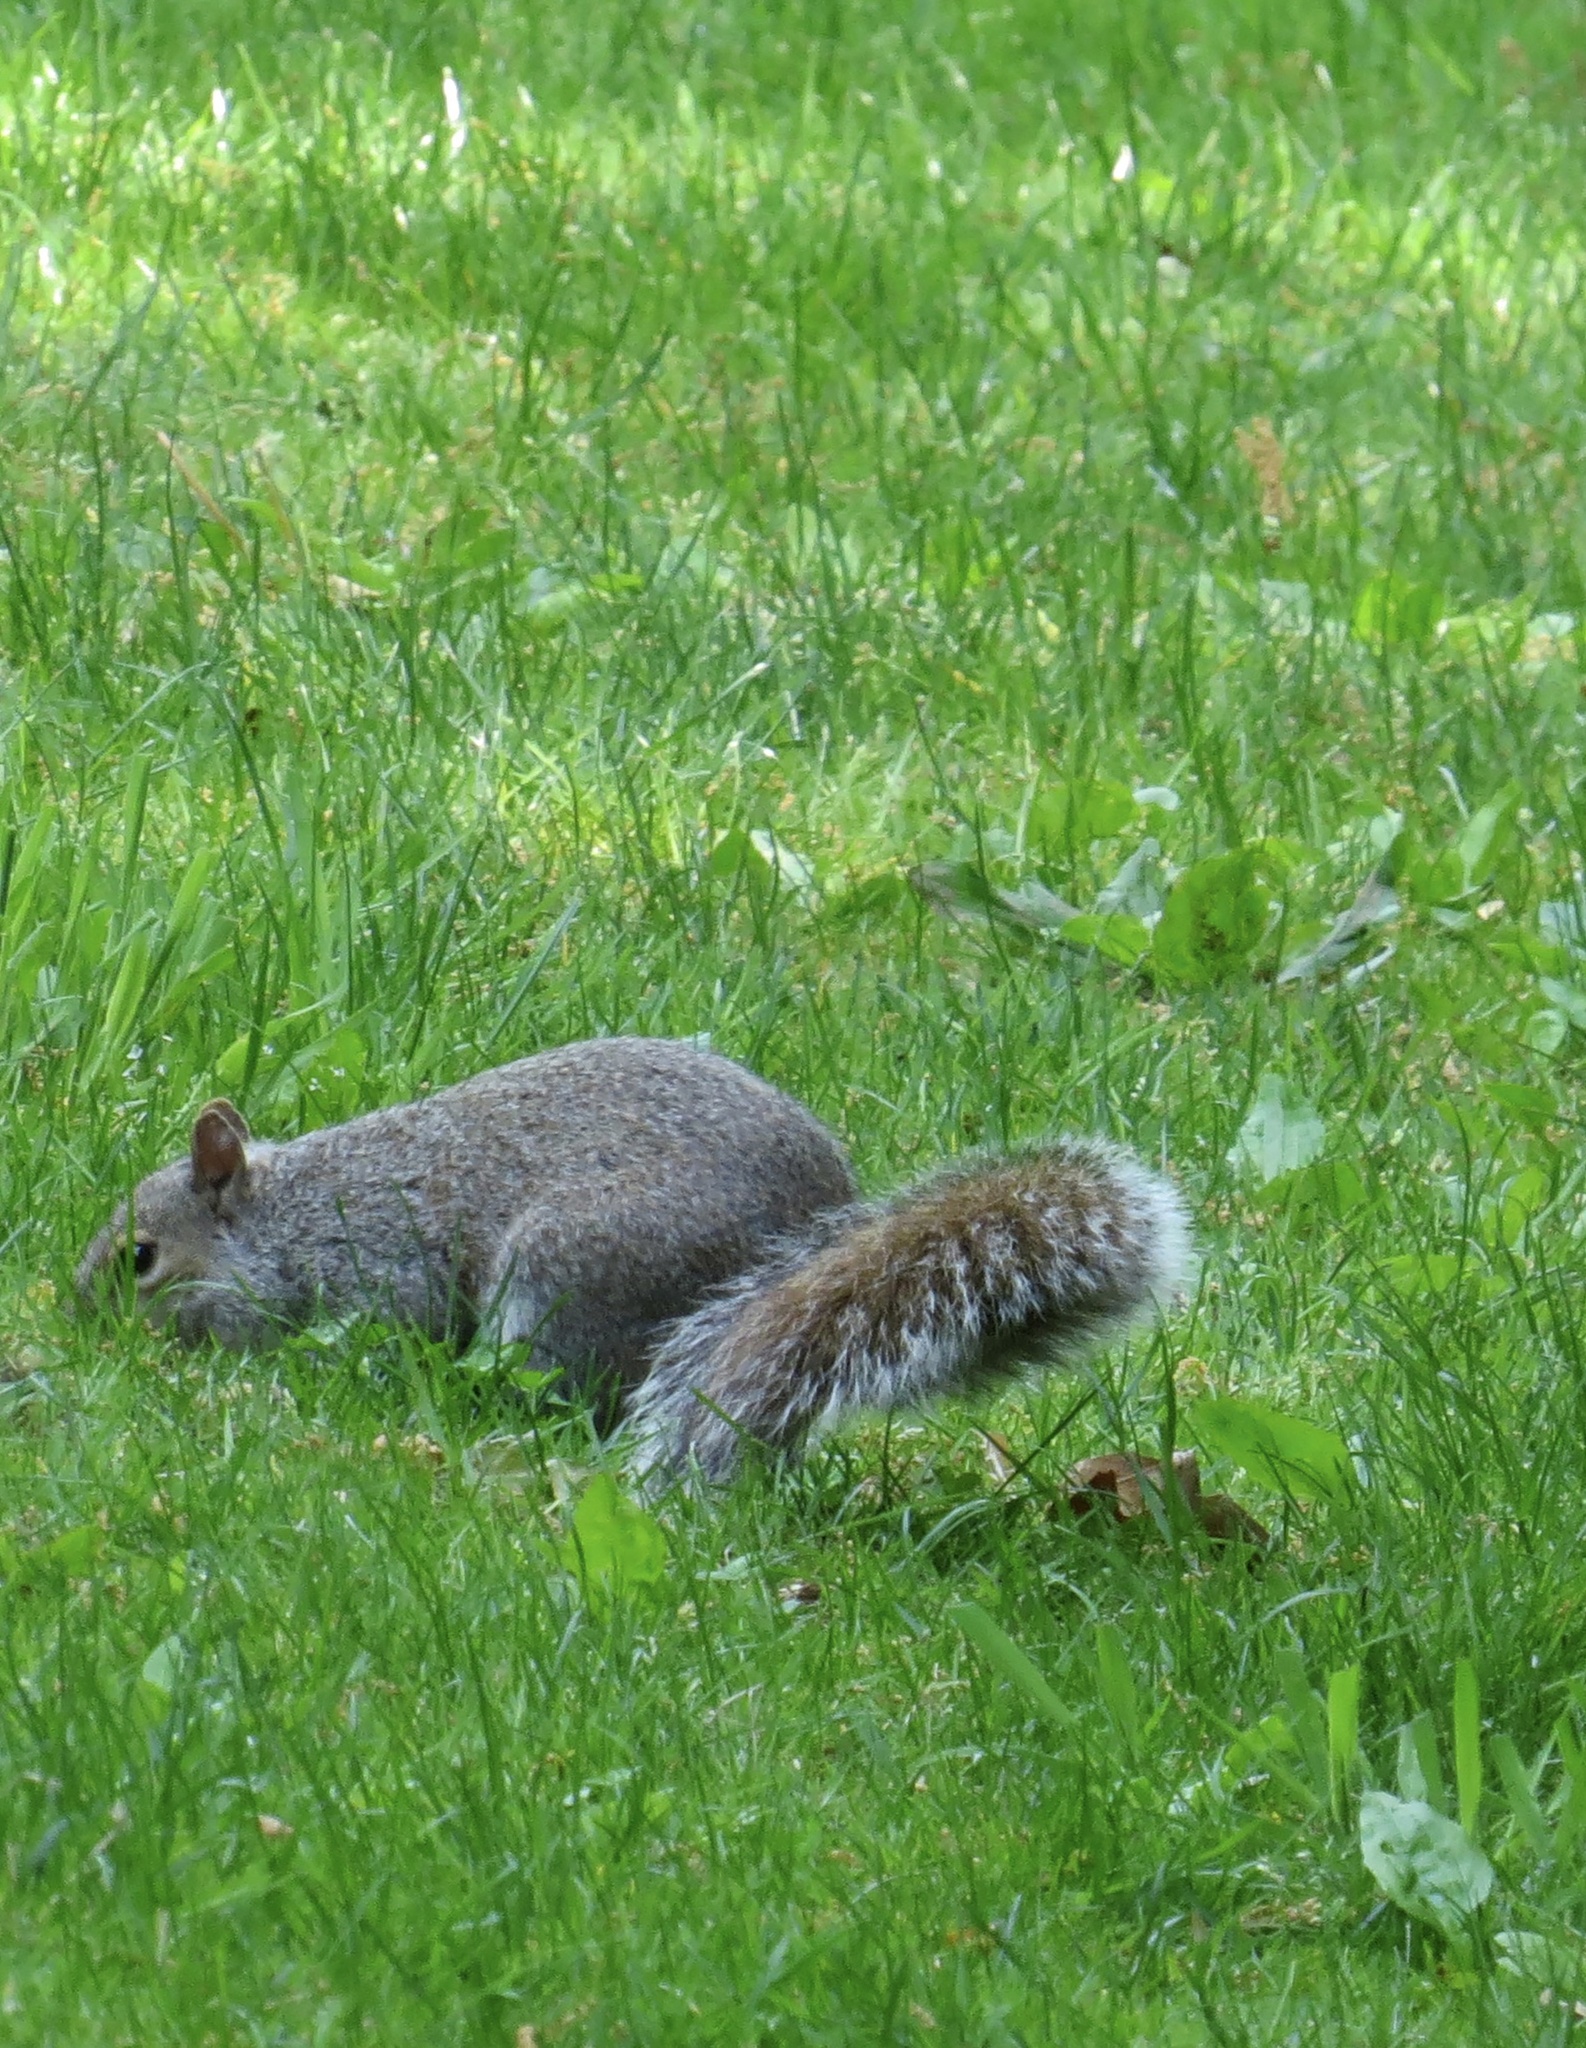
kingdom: Animalia
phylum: Chordata
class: Mammalia
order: Rodentia
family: Sciuridae
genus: Sciurus
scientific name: Sciurus carolinensis
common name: Eastern gray squirrel
